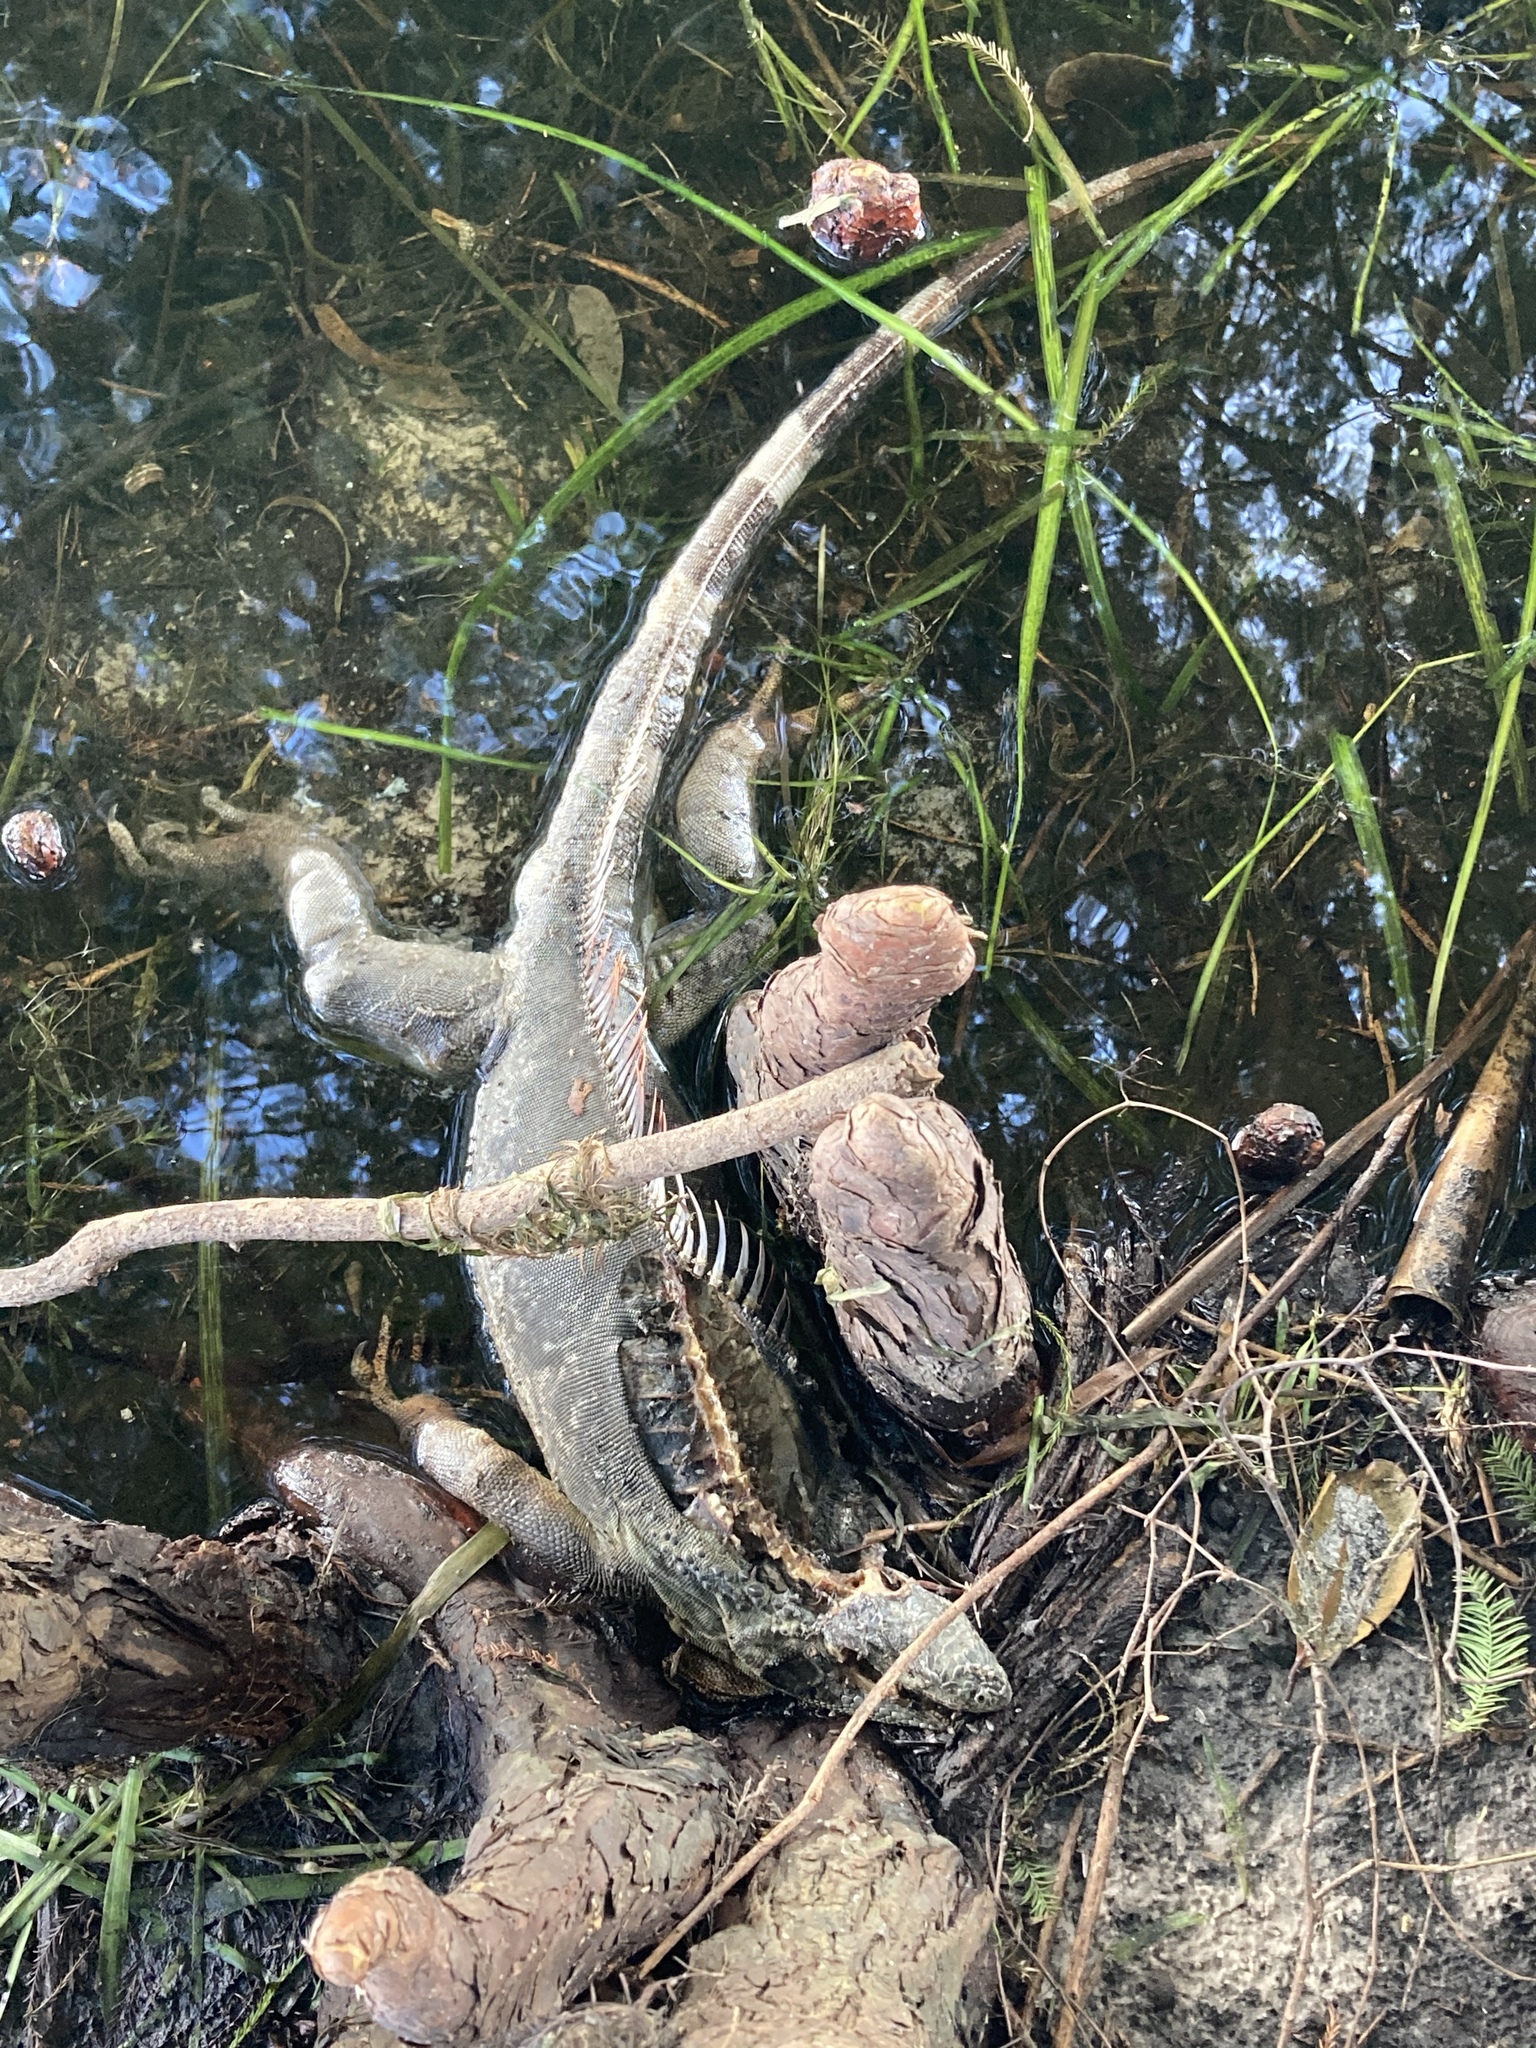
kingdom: Animalia
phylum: Chordata
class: Squamata
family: Iguanidae
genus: Iguana
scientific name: Iguana iguana
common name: Green iguana
